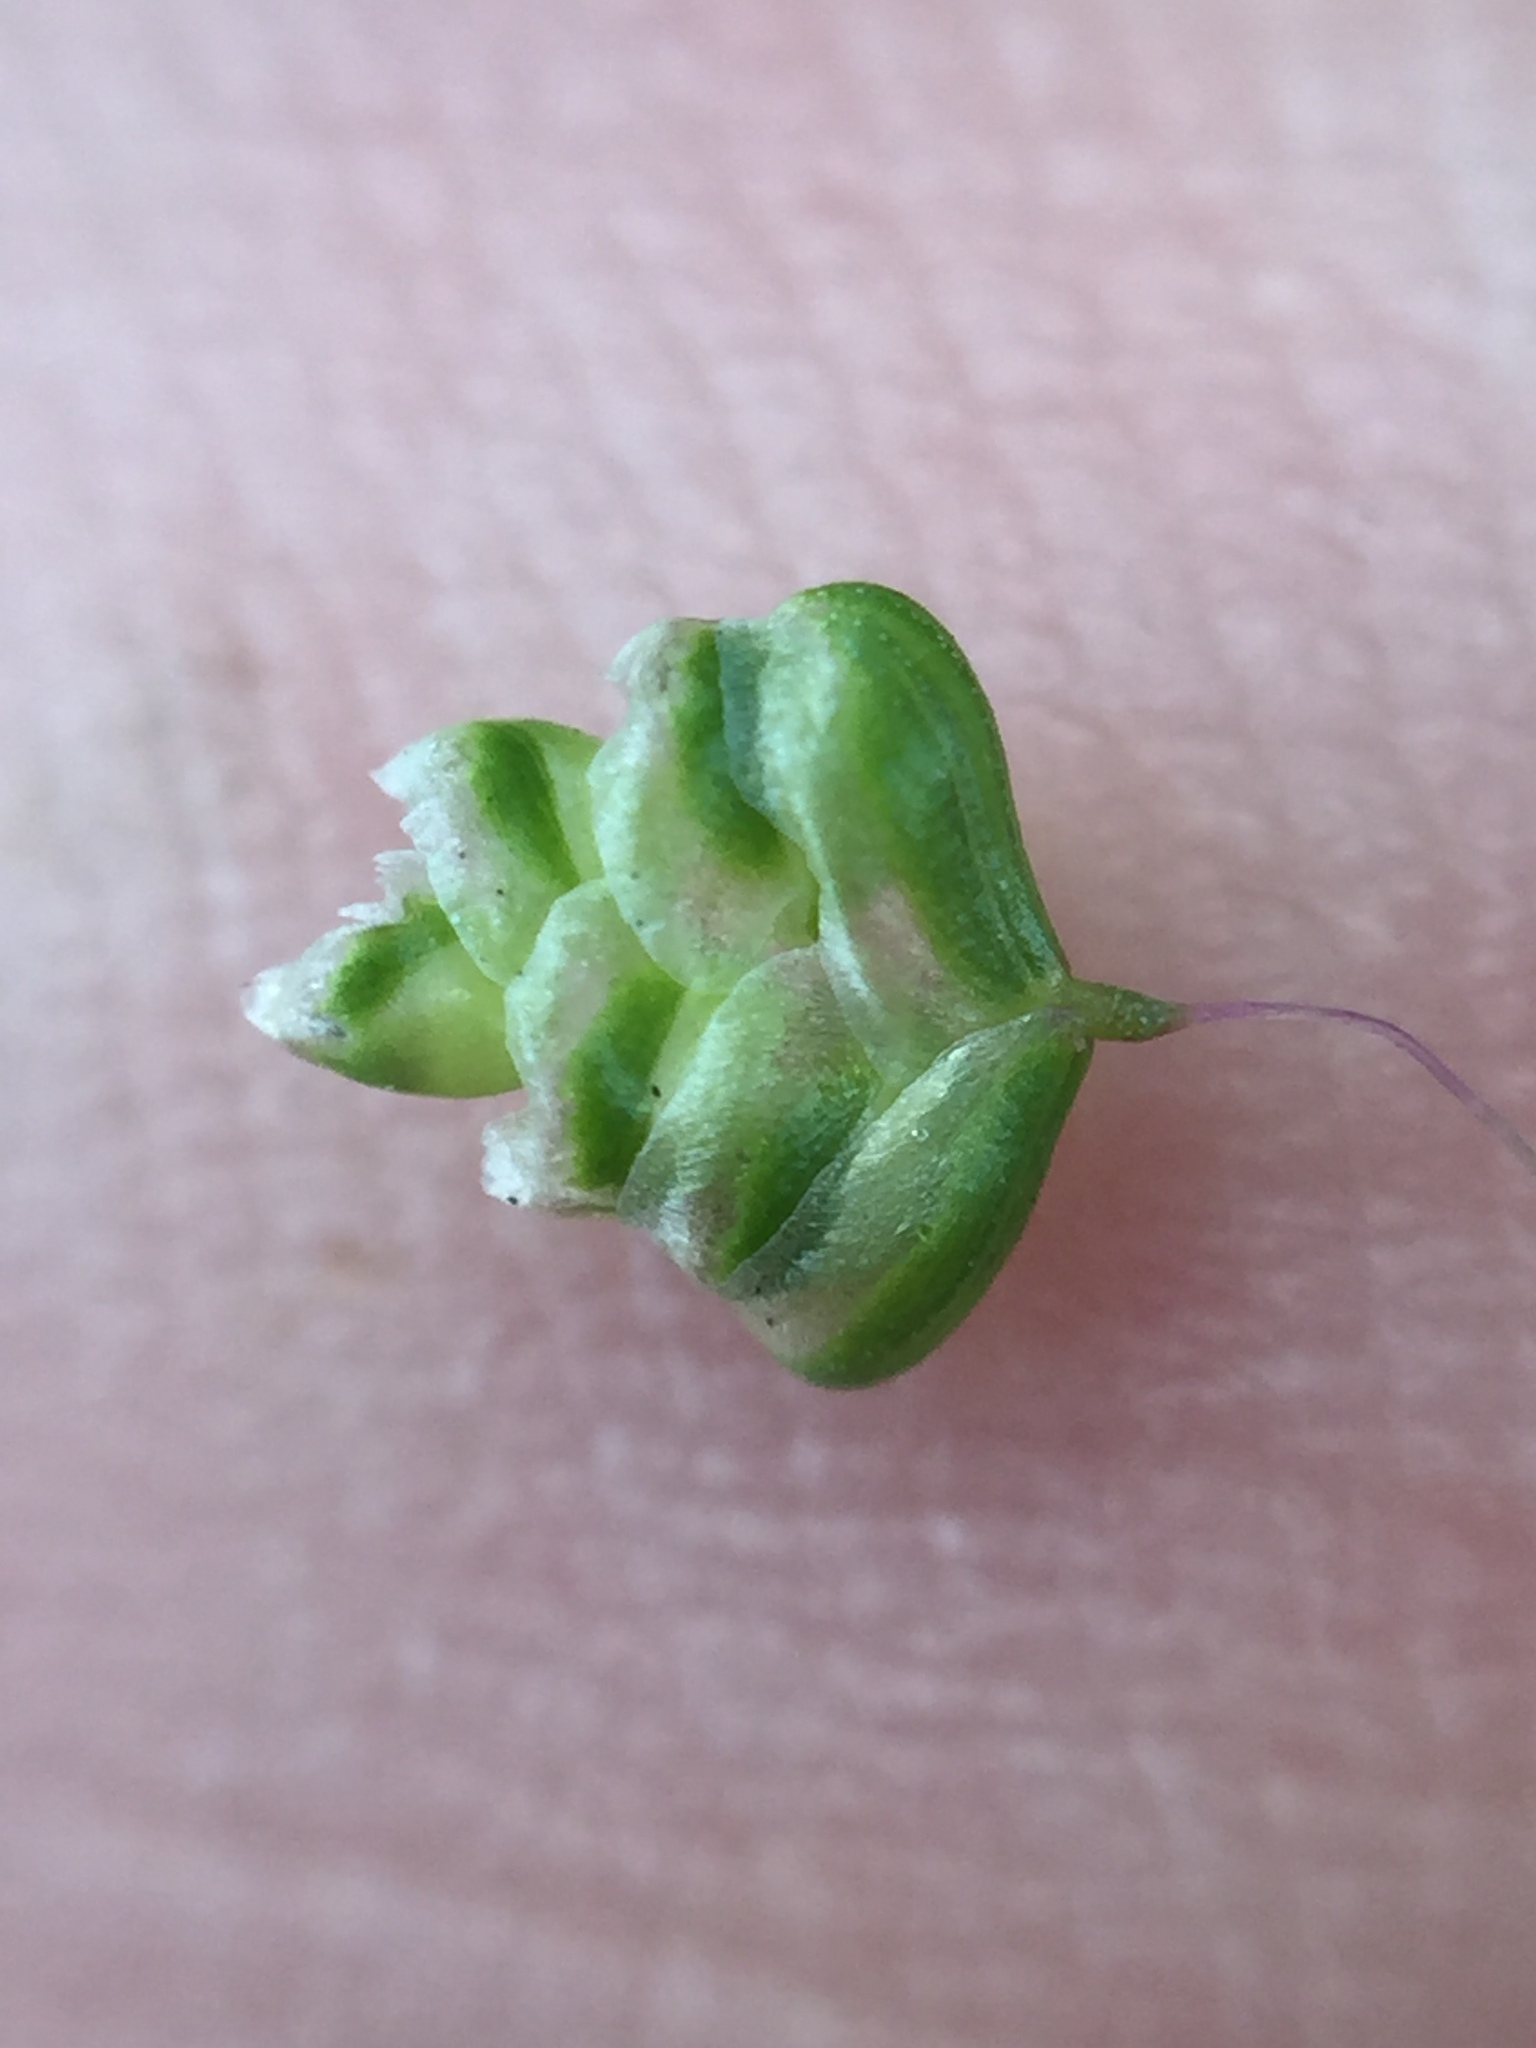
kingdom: Plantae
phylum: Tracheophyta
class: Liliopsida
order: Poales
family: Poaceae
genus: Briza
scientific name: Briza minor
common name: Lesser quaking-grass
